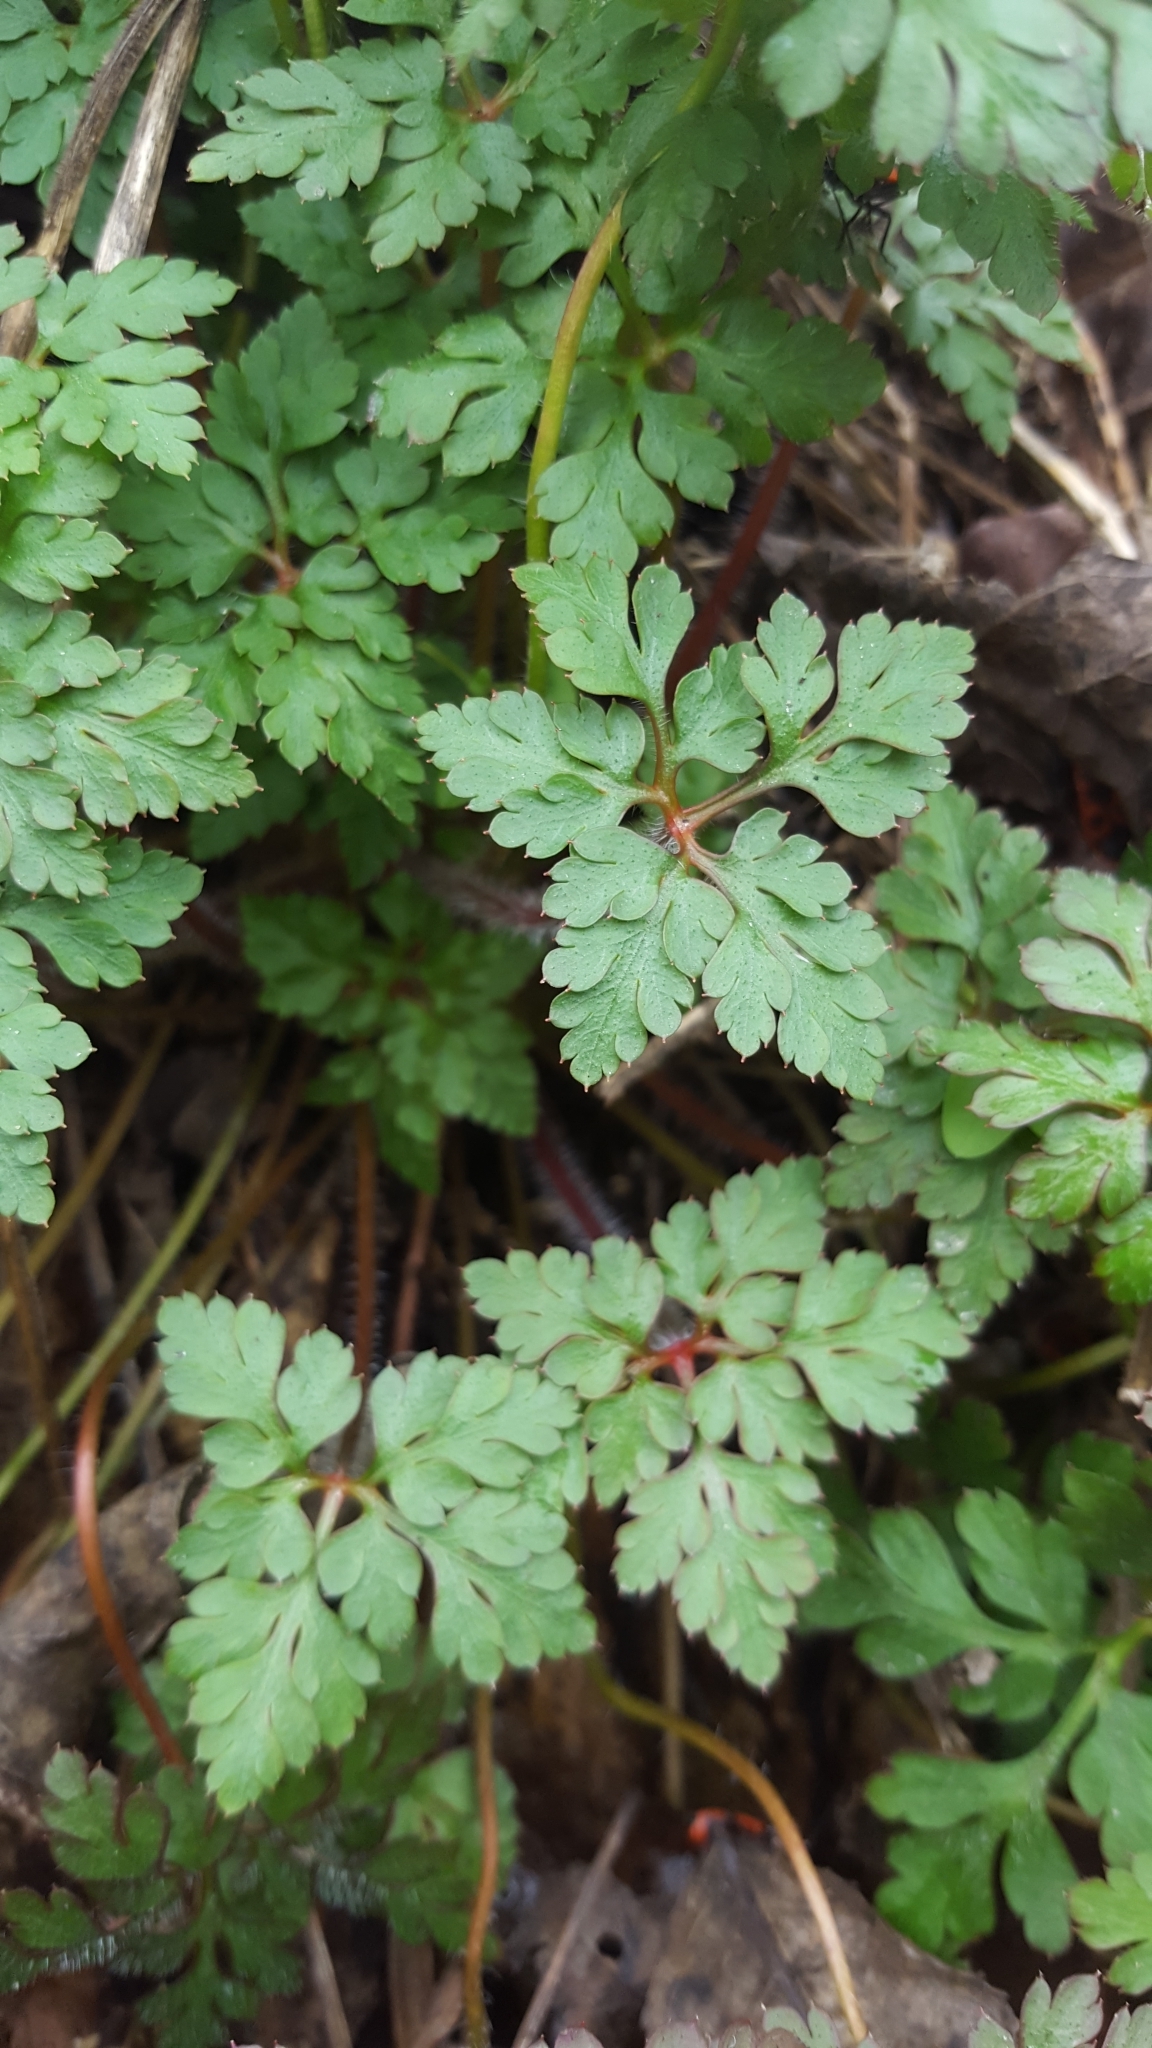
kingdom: Plantae
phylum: Tracheophyta
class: Magnoliopsida
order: Geraniales
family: Geraniaceae
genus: Geranium
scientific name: Geranium robertianum
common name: Herb-robert
